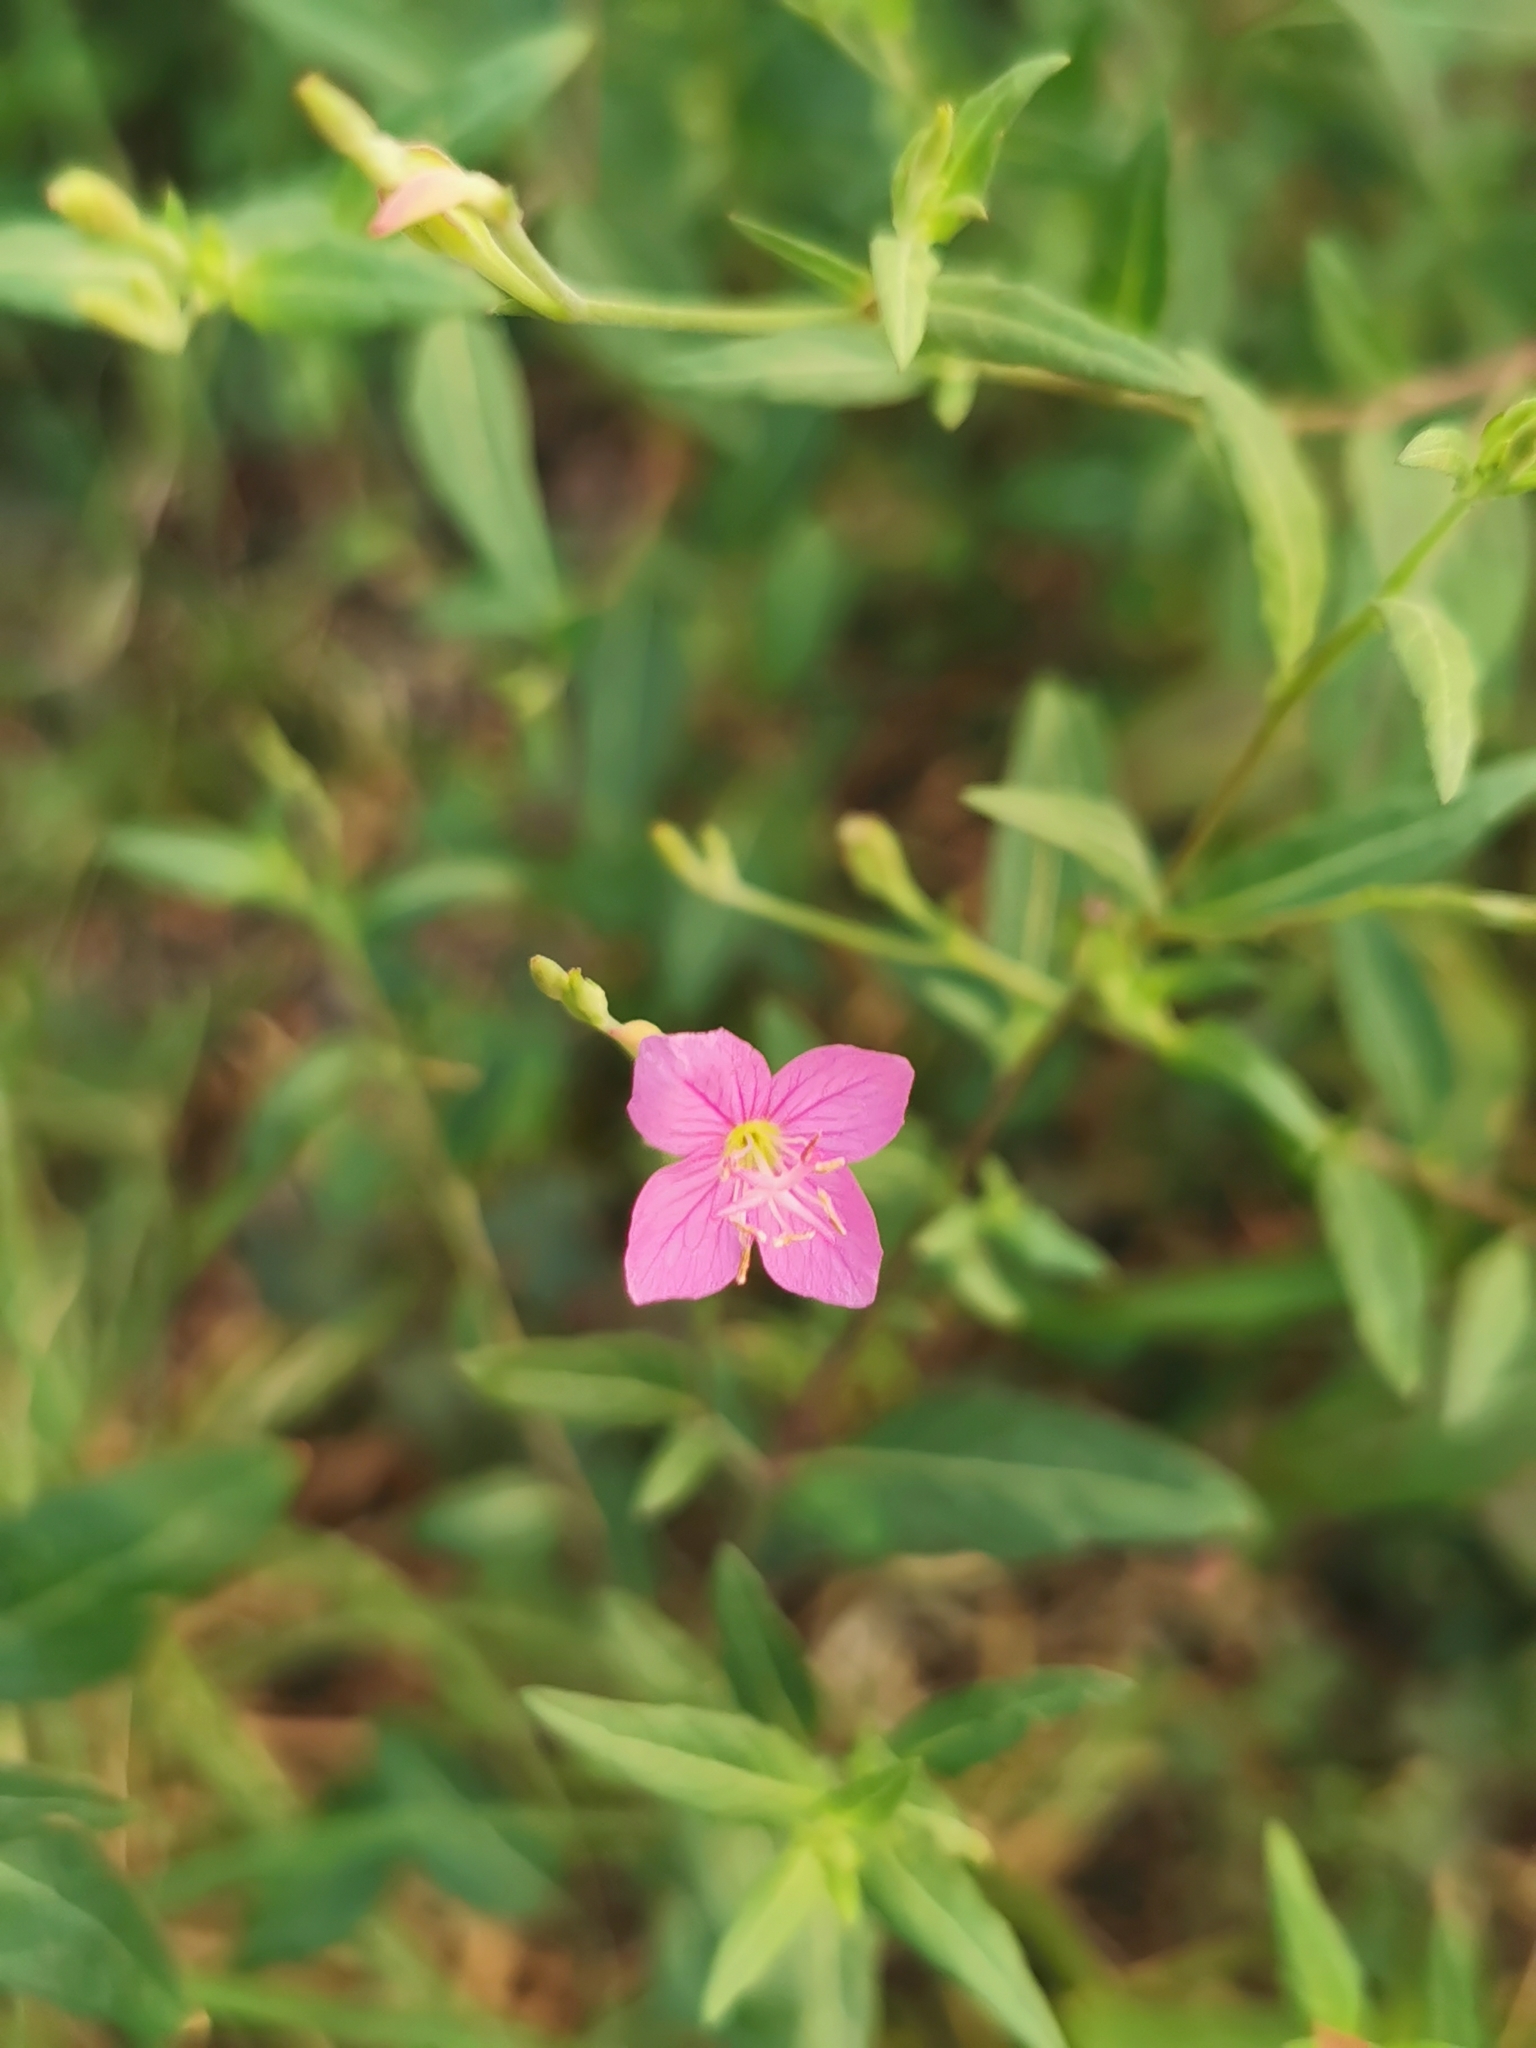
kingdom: Plantae
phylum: Tracheophyta
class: Magnoliopsida
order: Myrtales
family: Onagraceae
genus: Oenothera
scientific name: Oenothera rosea
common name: Rosy evening-primrose
